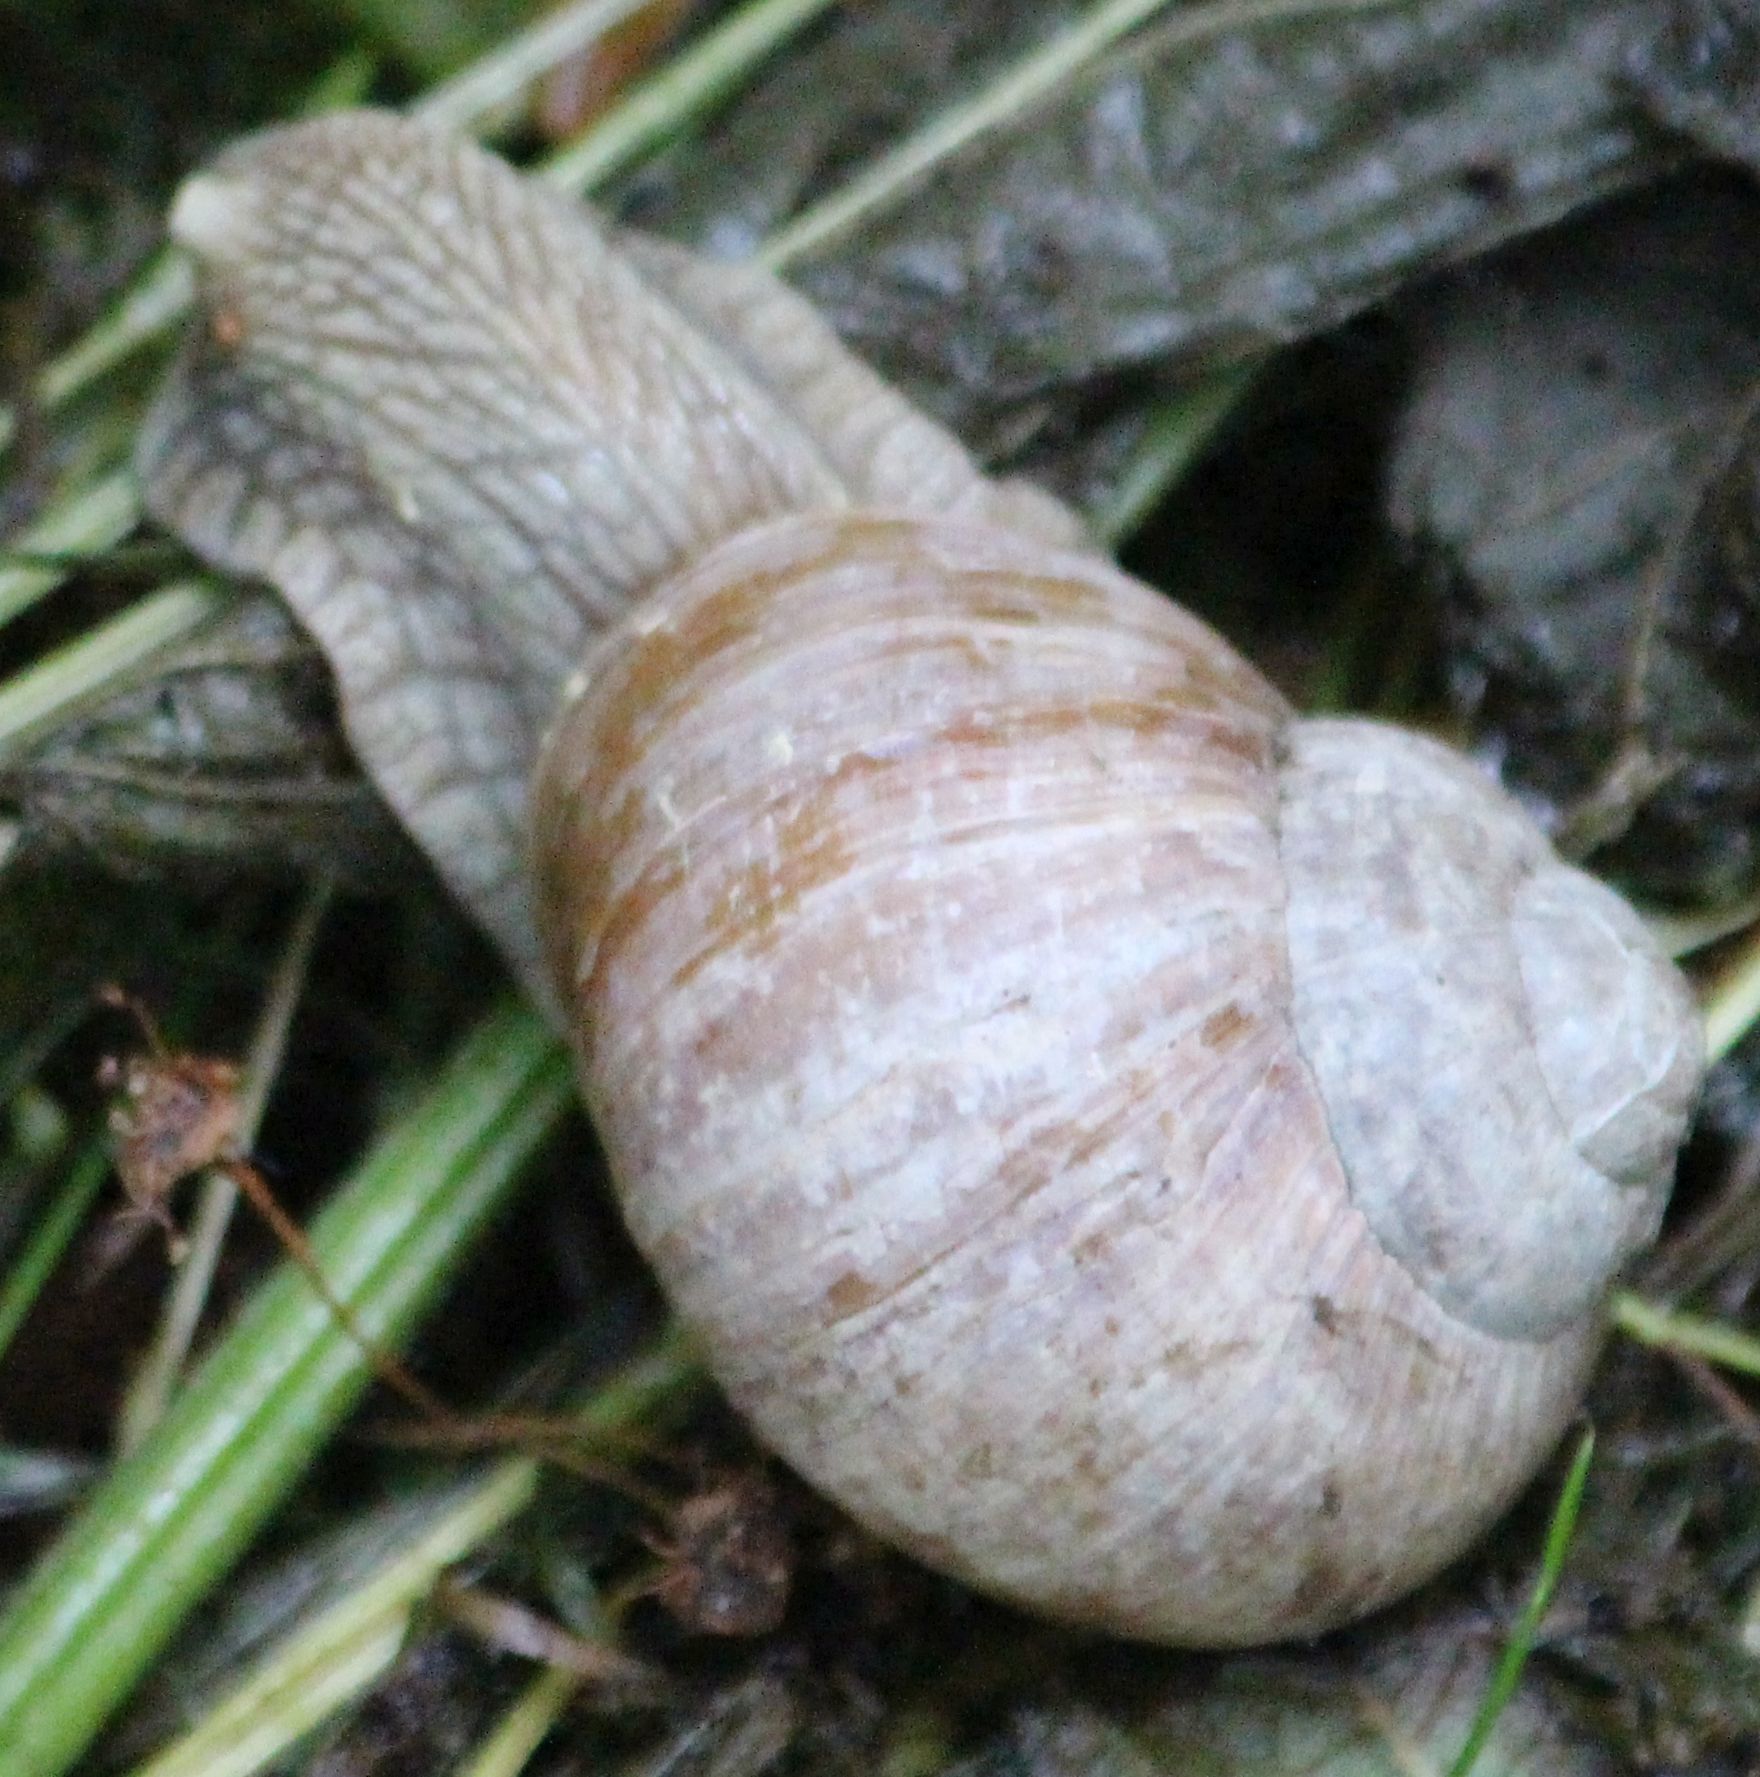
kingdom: Animalia
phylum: Mollusca
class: Gastropoda
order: Stylommatophora
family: Helicidae
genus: Helix
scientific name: Helix pomatia
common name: Roman snail
